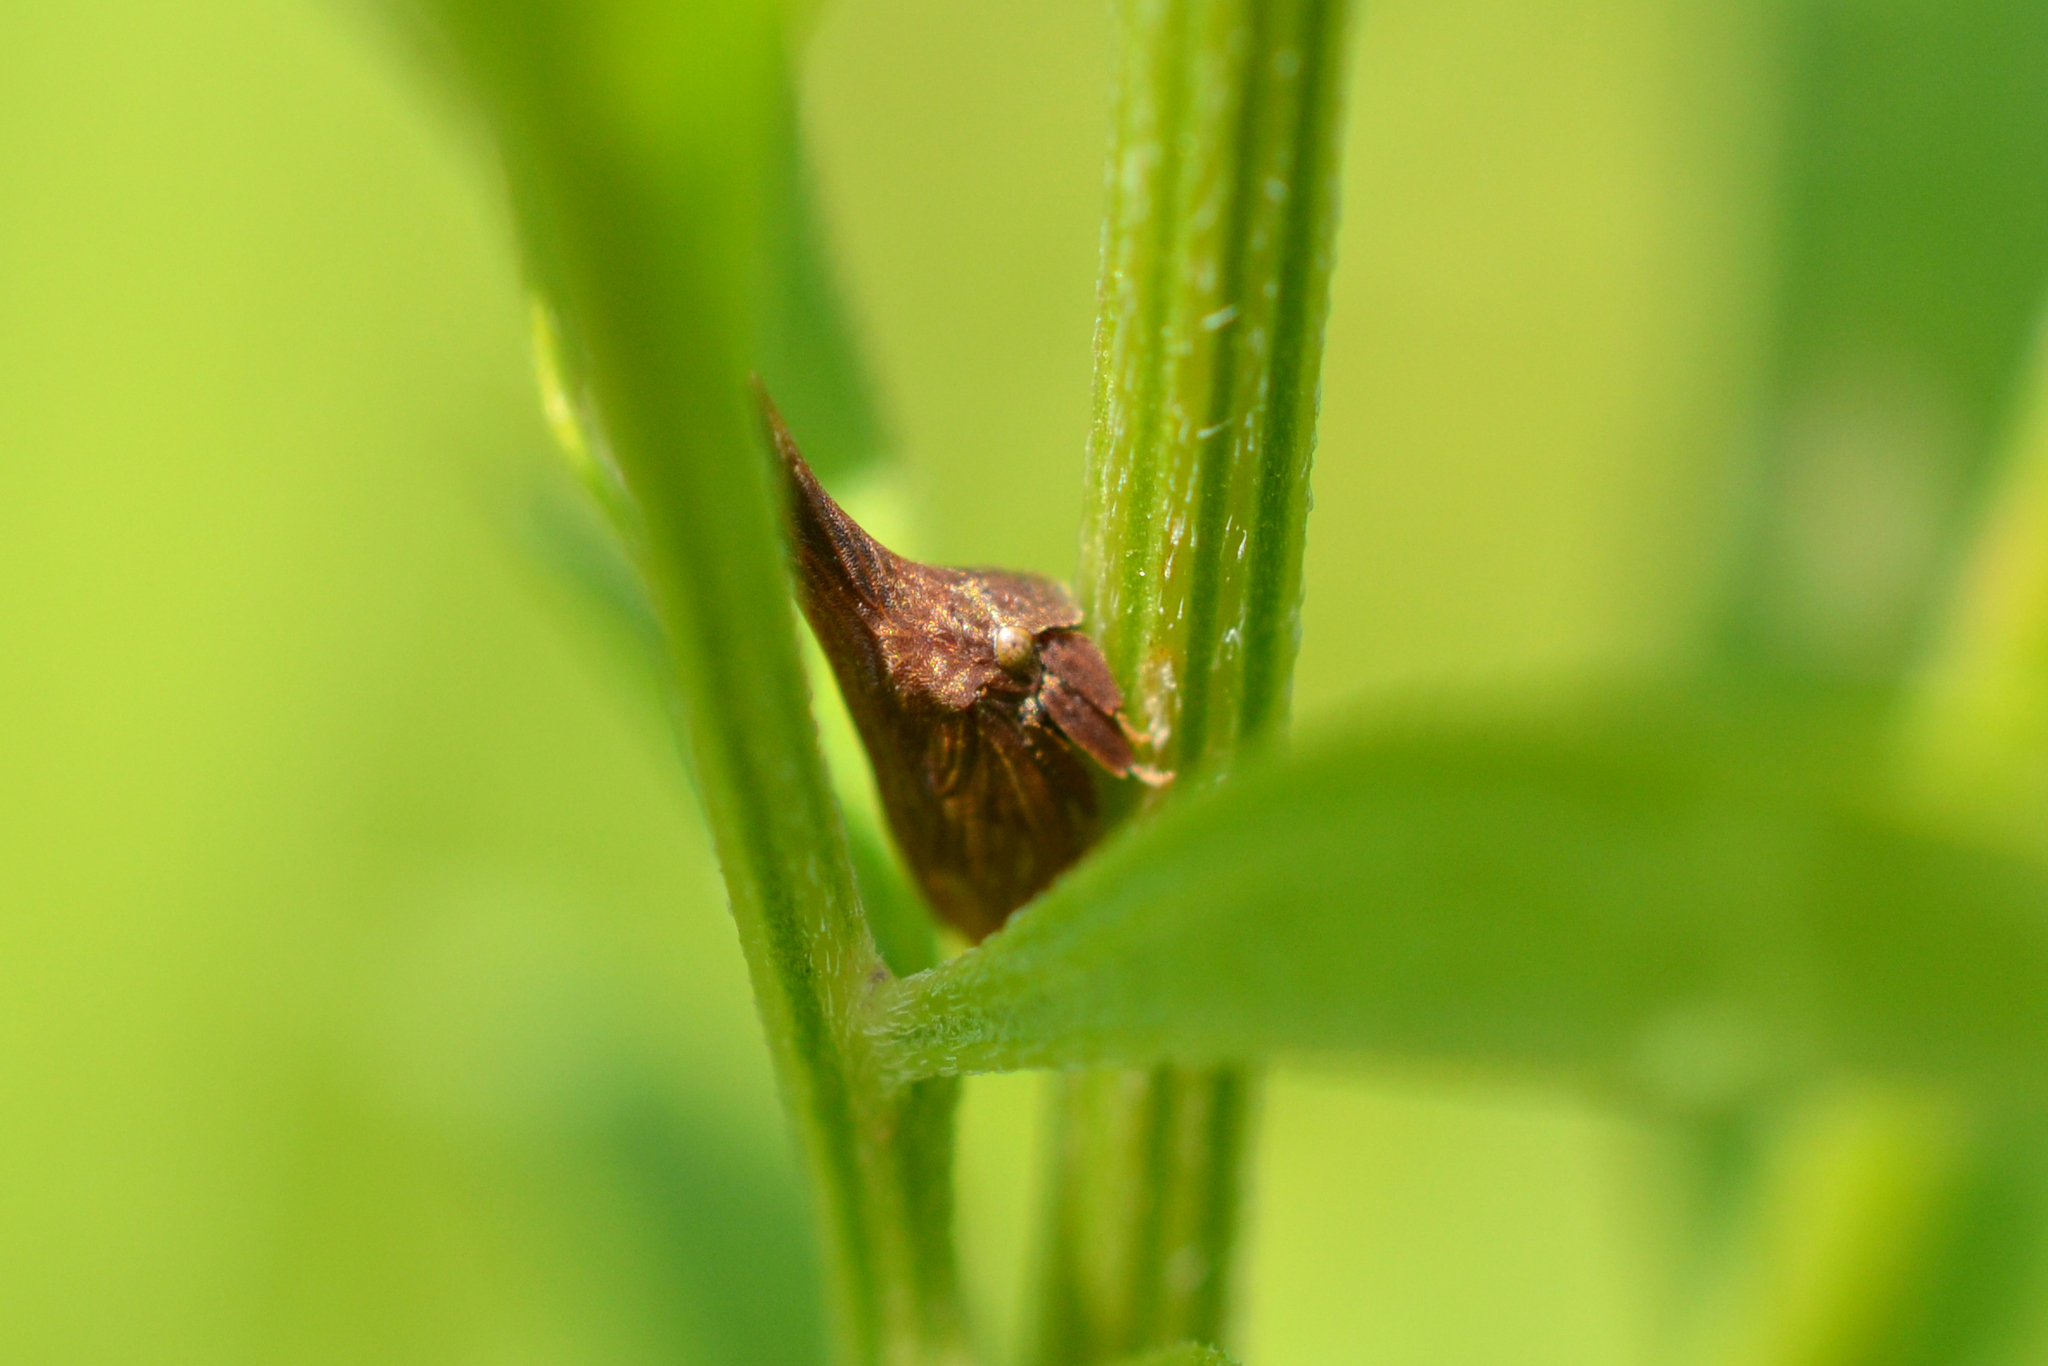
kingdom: Animalia
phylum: Arthropoda
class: Insecta
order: Hemiptera
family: Membracidae
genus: Enchenopa
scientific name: Enchenopa latipes
